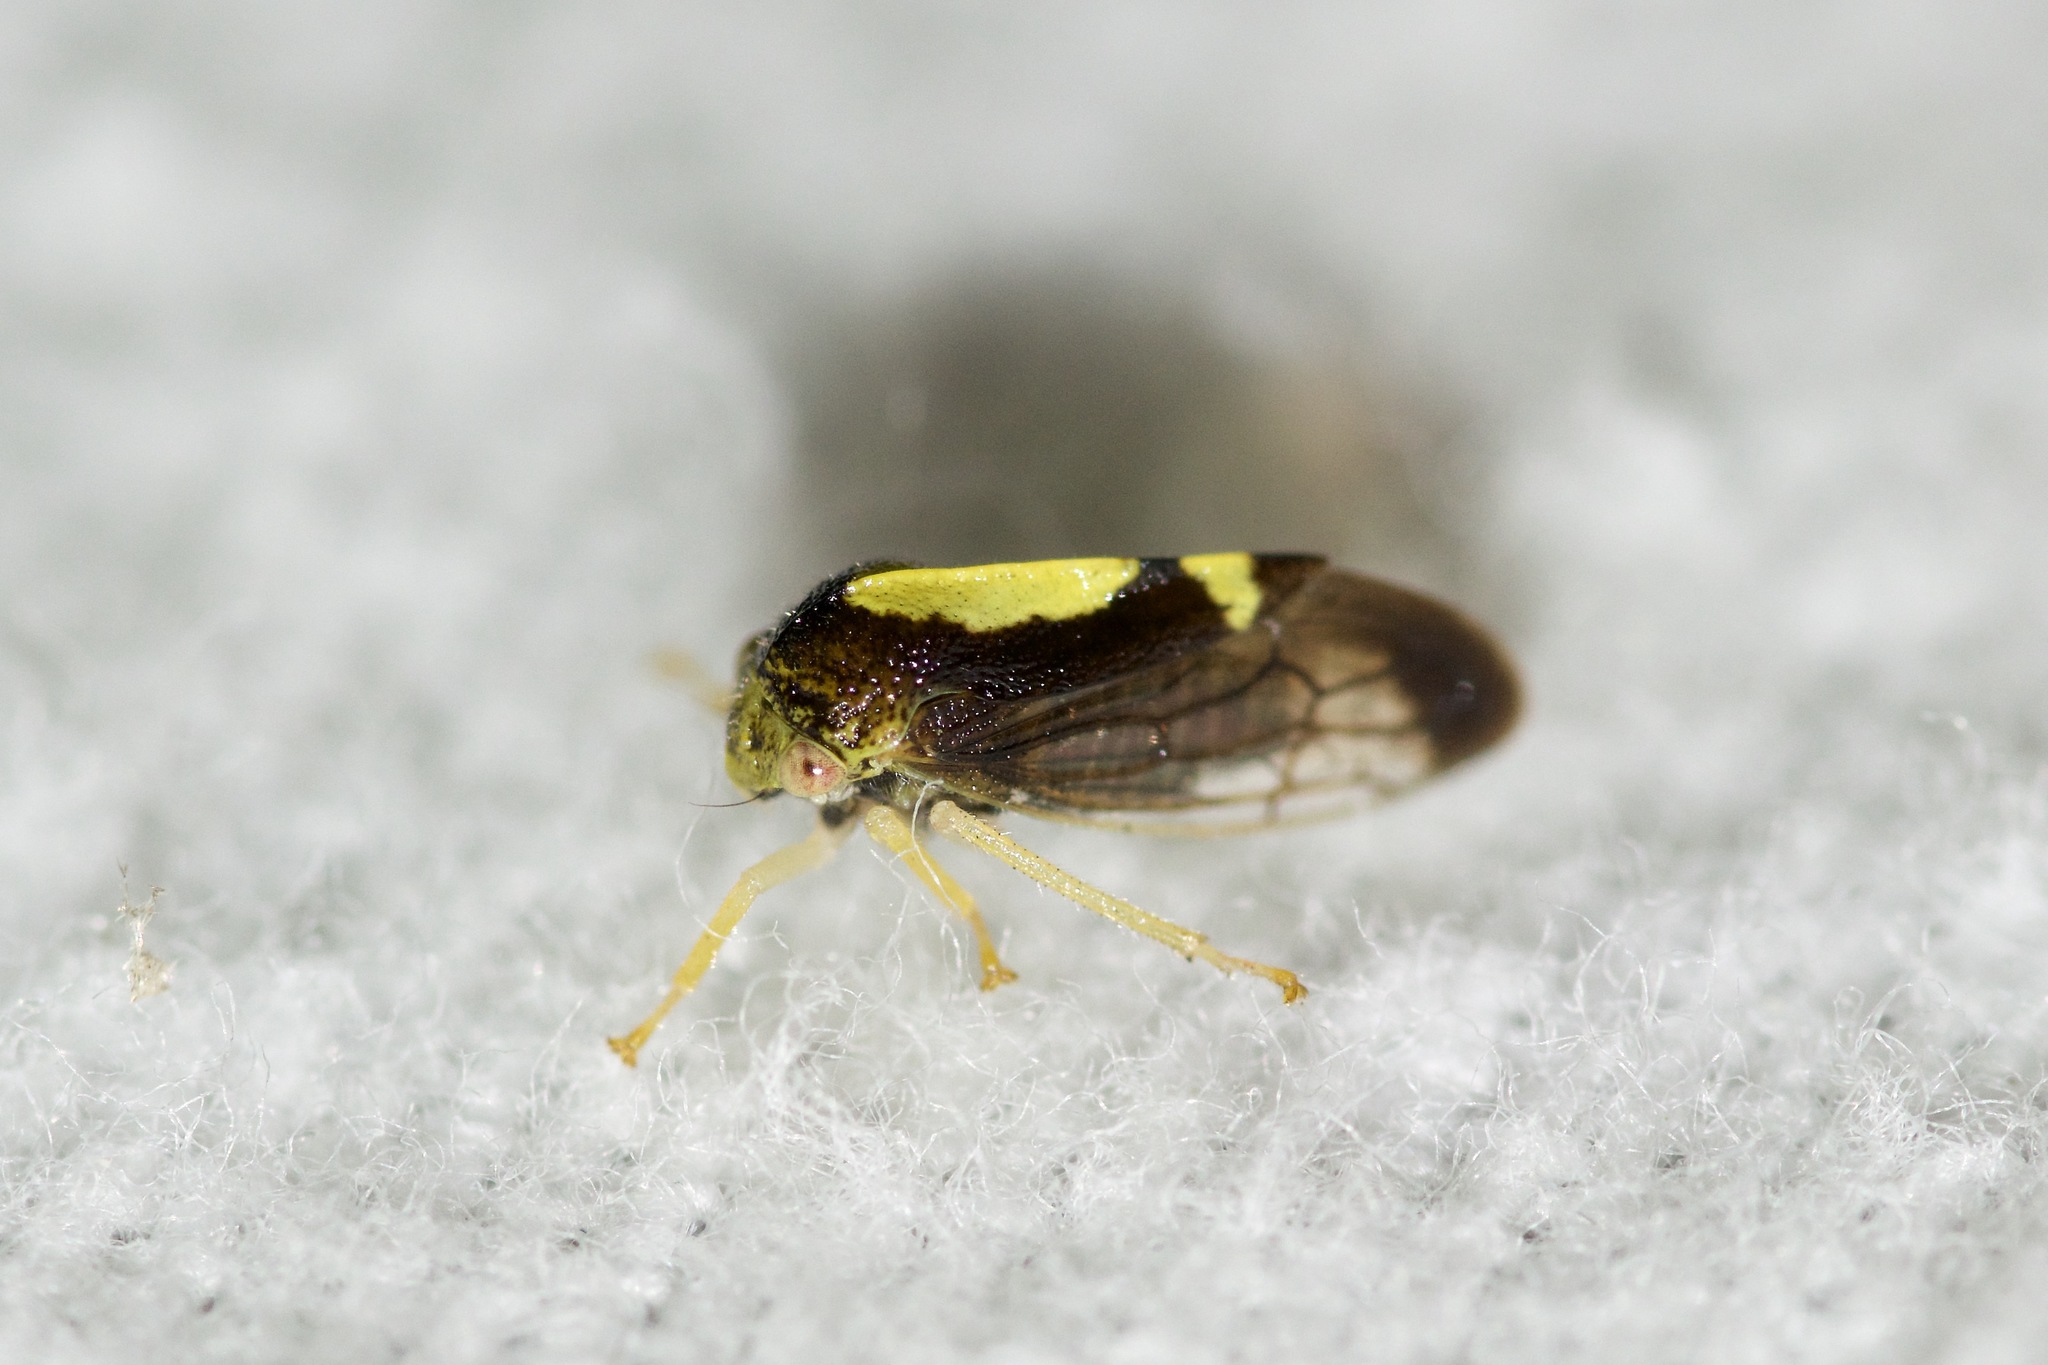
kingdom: Animalia
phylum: Arthropoda
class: Insecta
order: Hemiptera
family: Membracidae
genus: Atymna
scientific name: Atymna querci
